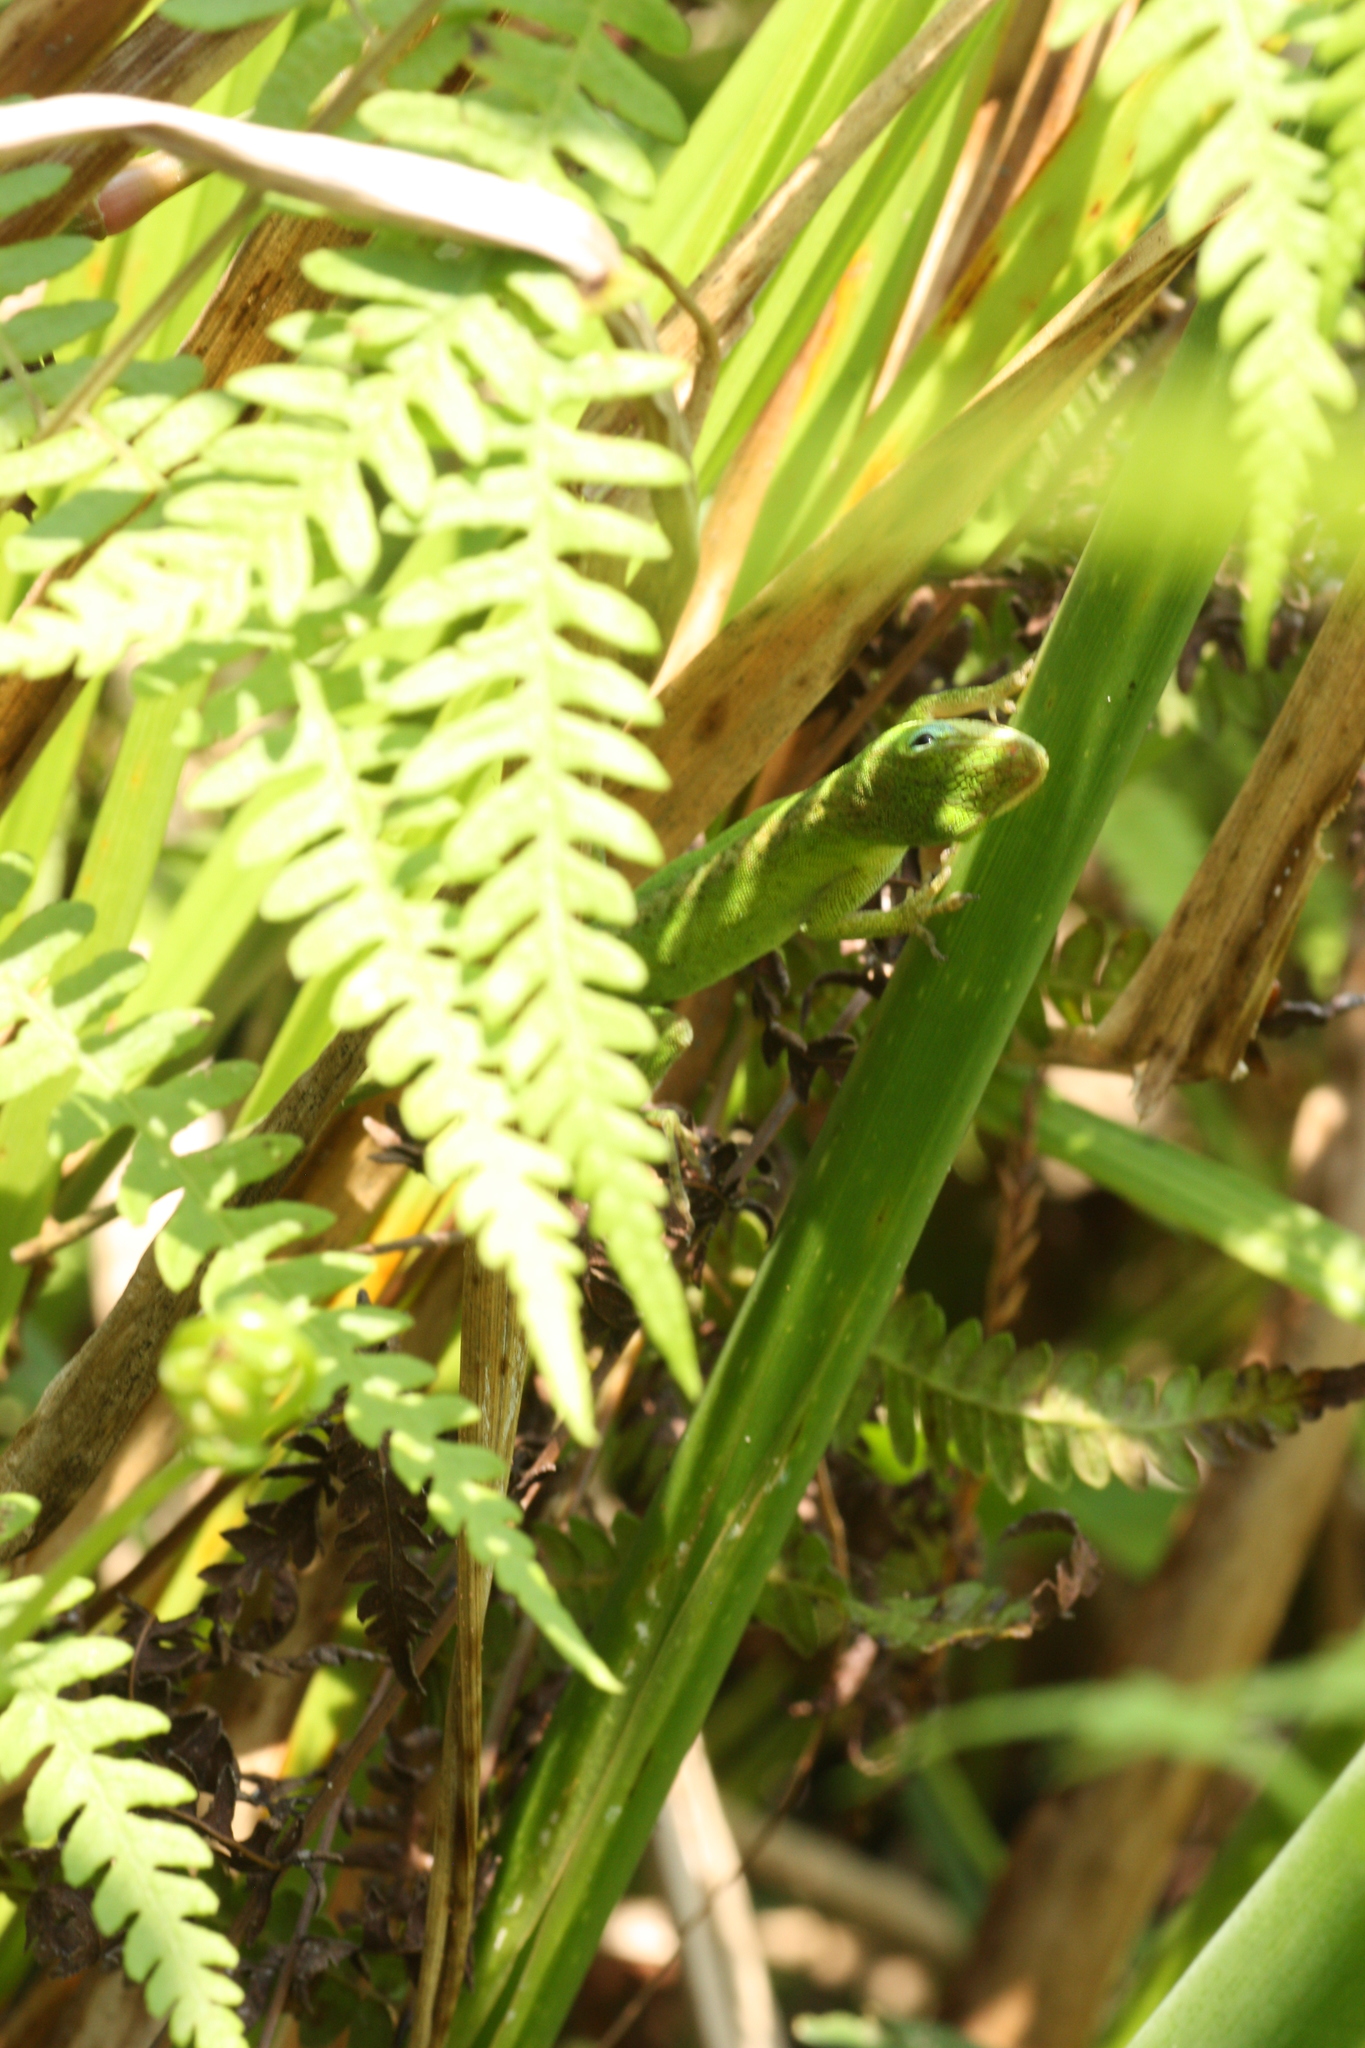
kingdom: Animalia
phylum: Chordata
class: Squamata
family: Dactyloidae
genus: Anolis
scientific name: Anolis carolinensis
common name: Green anole
